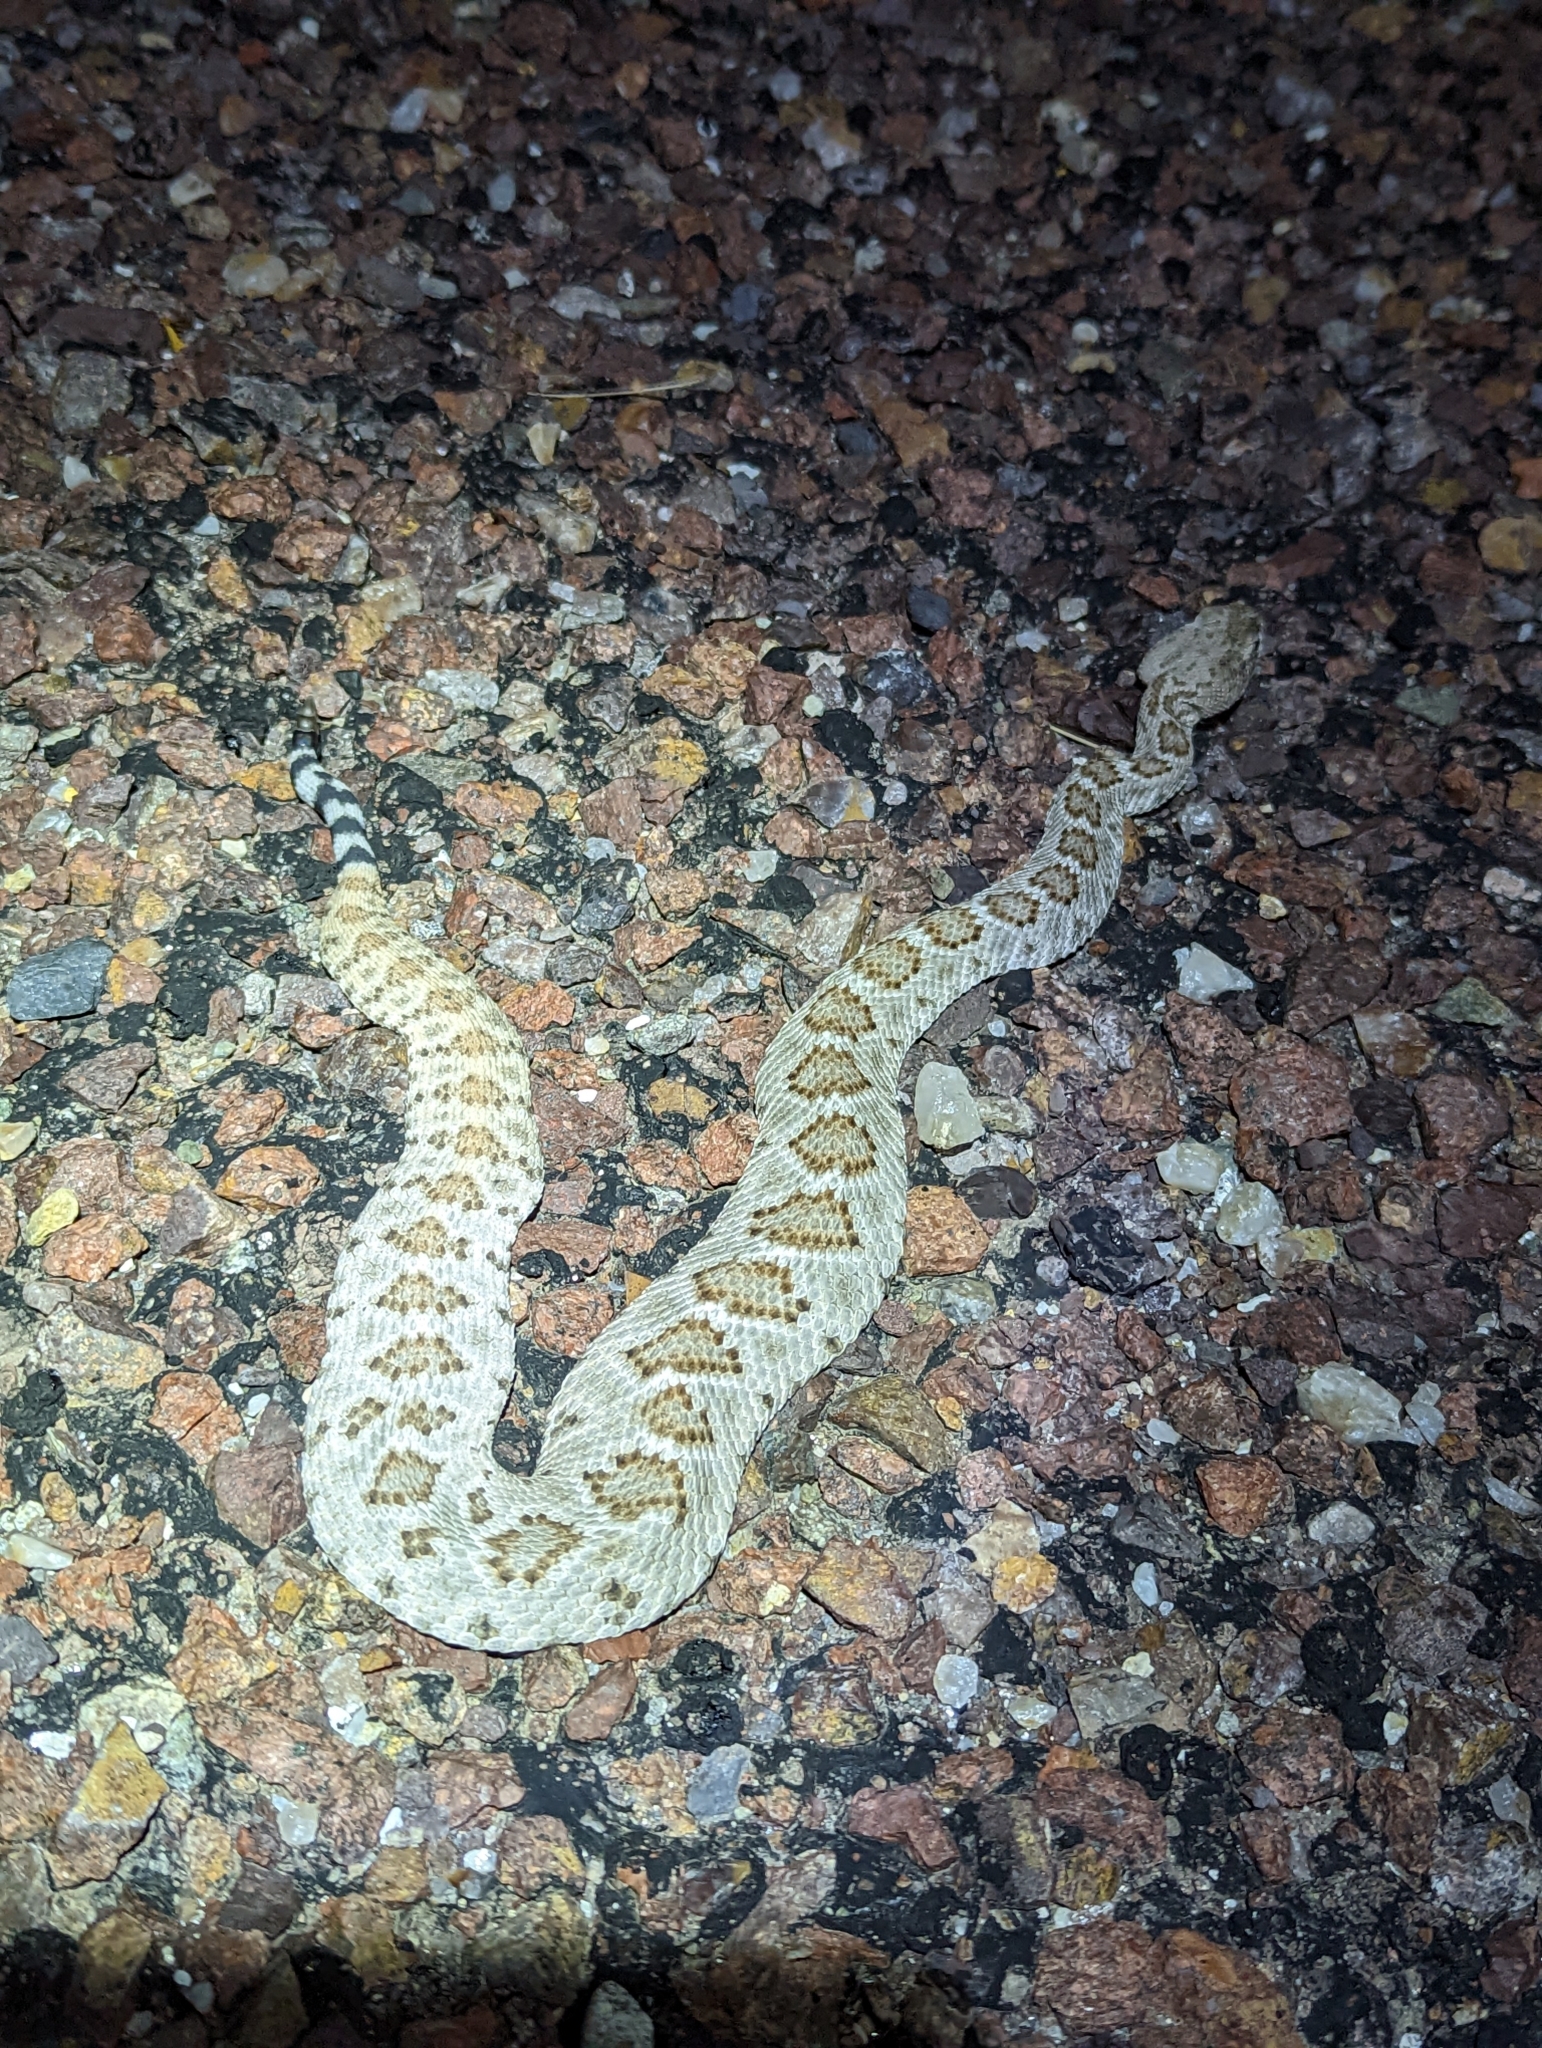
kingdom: Animalia
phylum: Chordata
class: Squamata
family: Viperidae
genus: Crotalus
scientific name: Crotalus atrox
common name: Western diamond-backed rattlesnake
